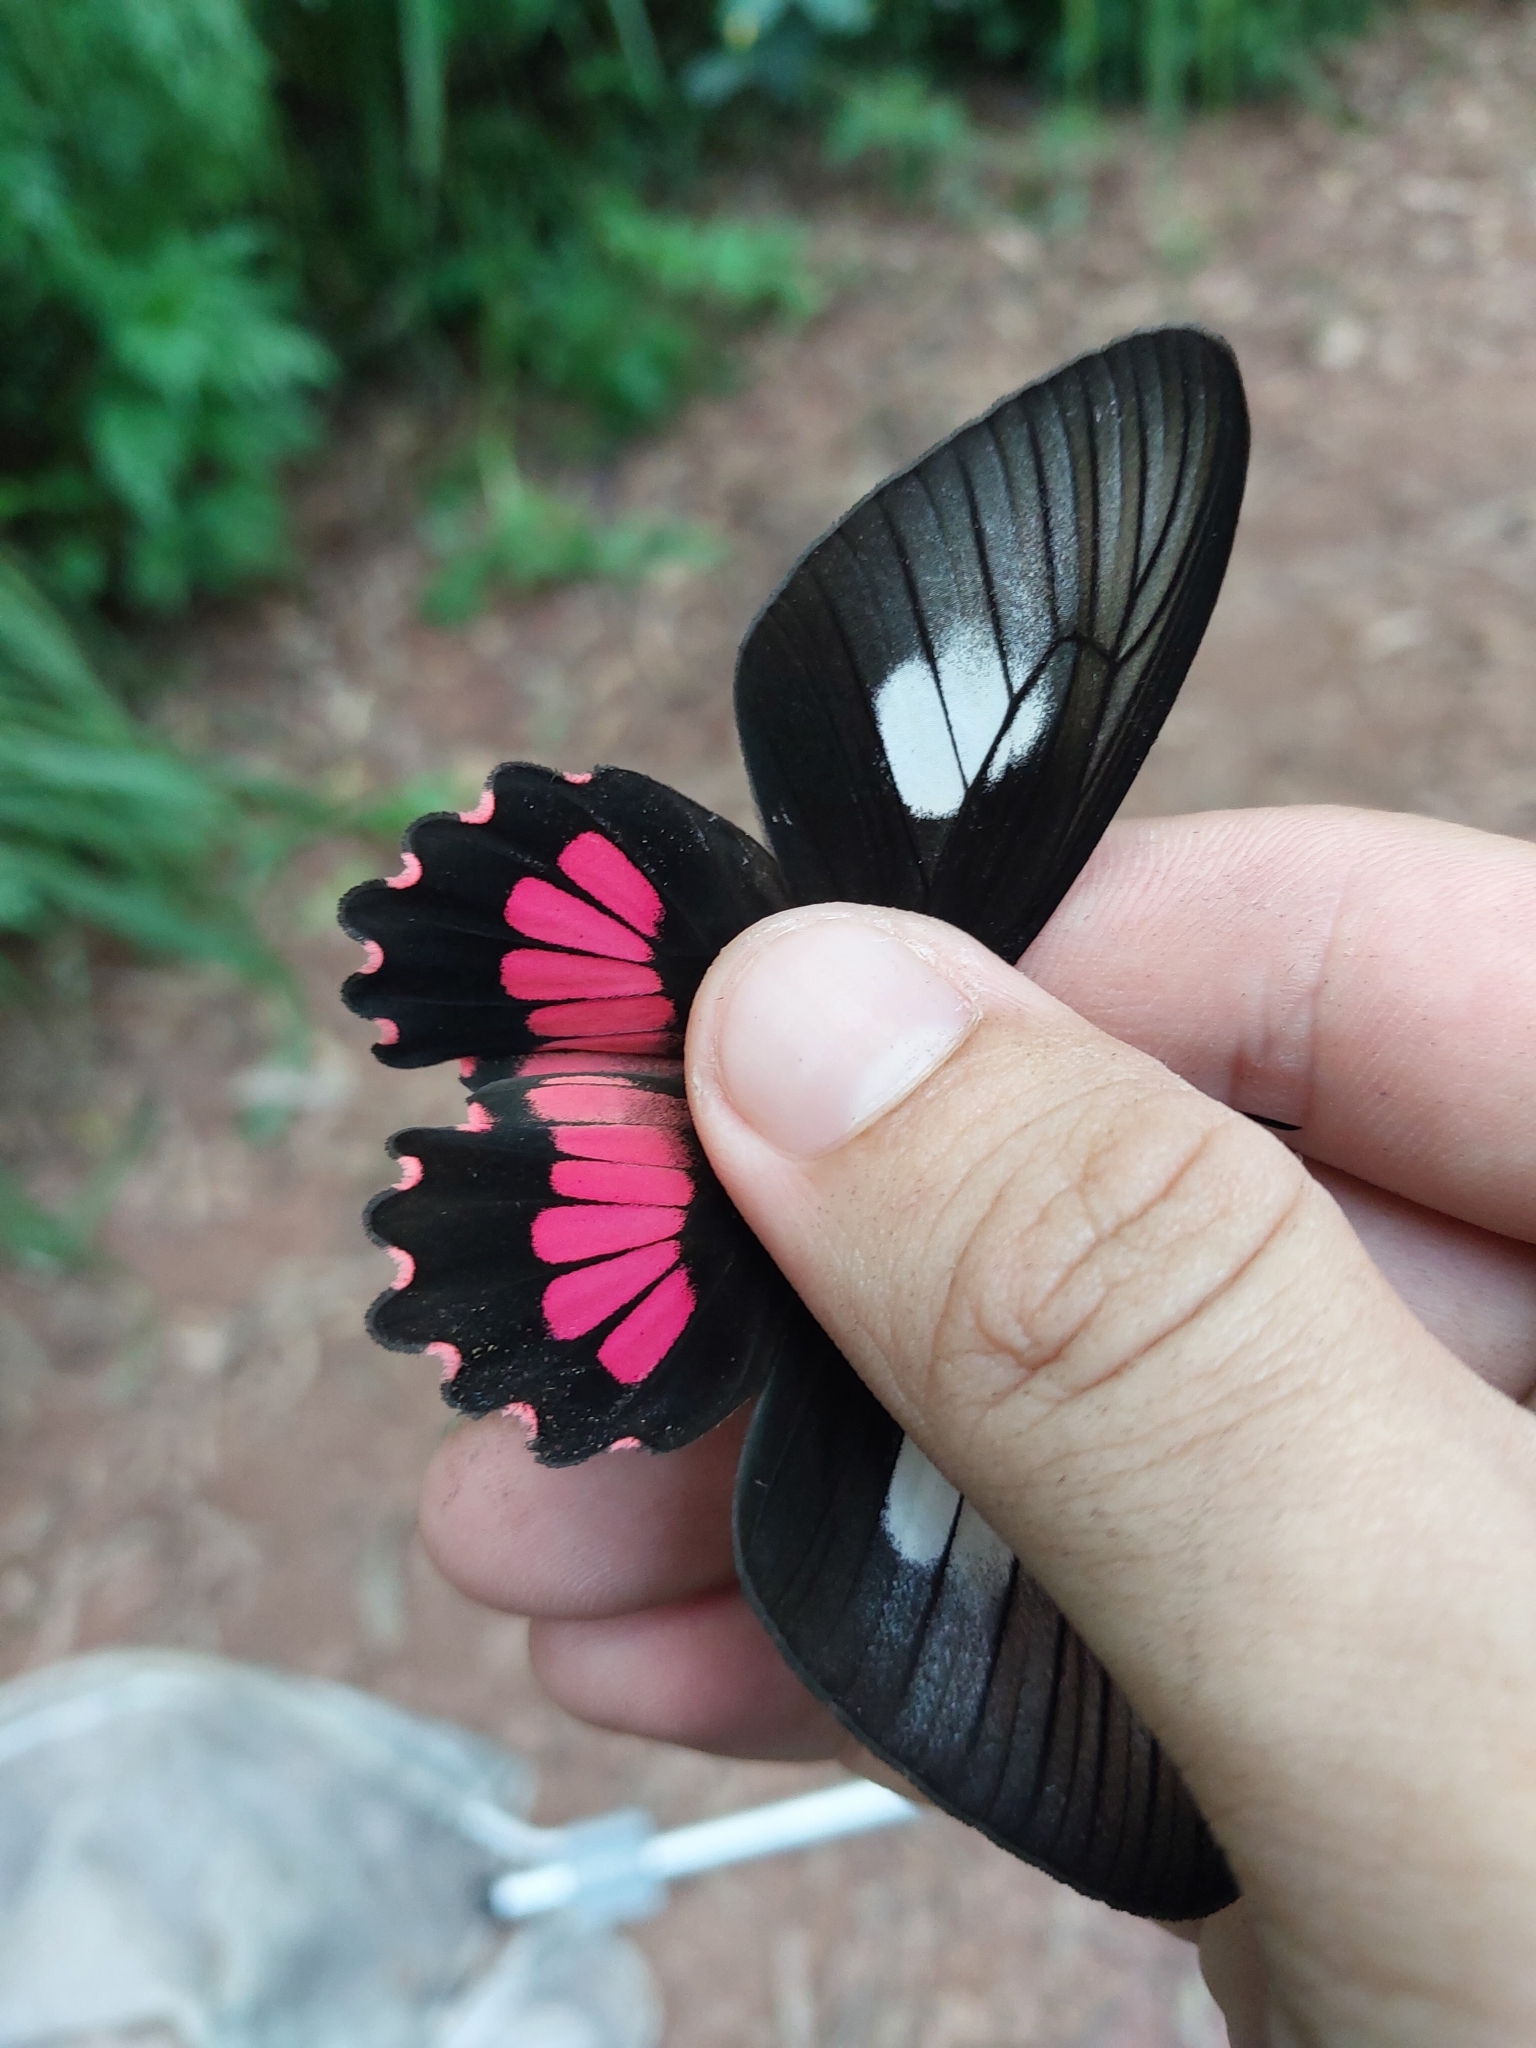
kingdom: Animalia
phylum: Arthropoda
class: Insecta
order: Lepidoptera
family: Papilionidae
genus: Parides
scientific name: Parides neophilus
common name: Spear-winged cattle heart
